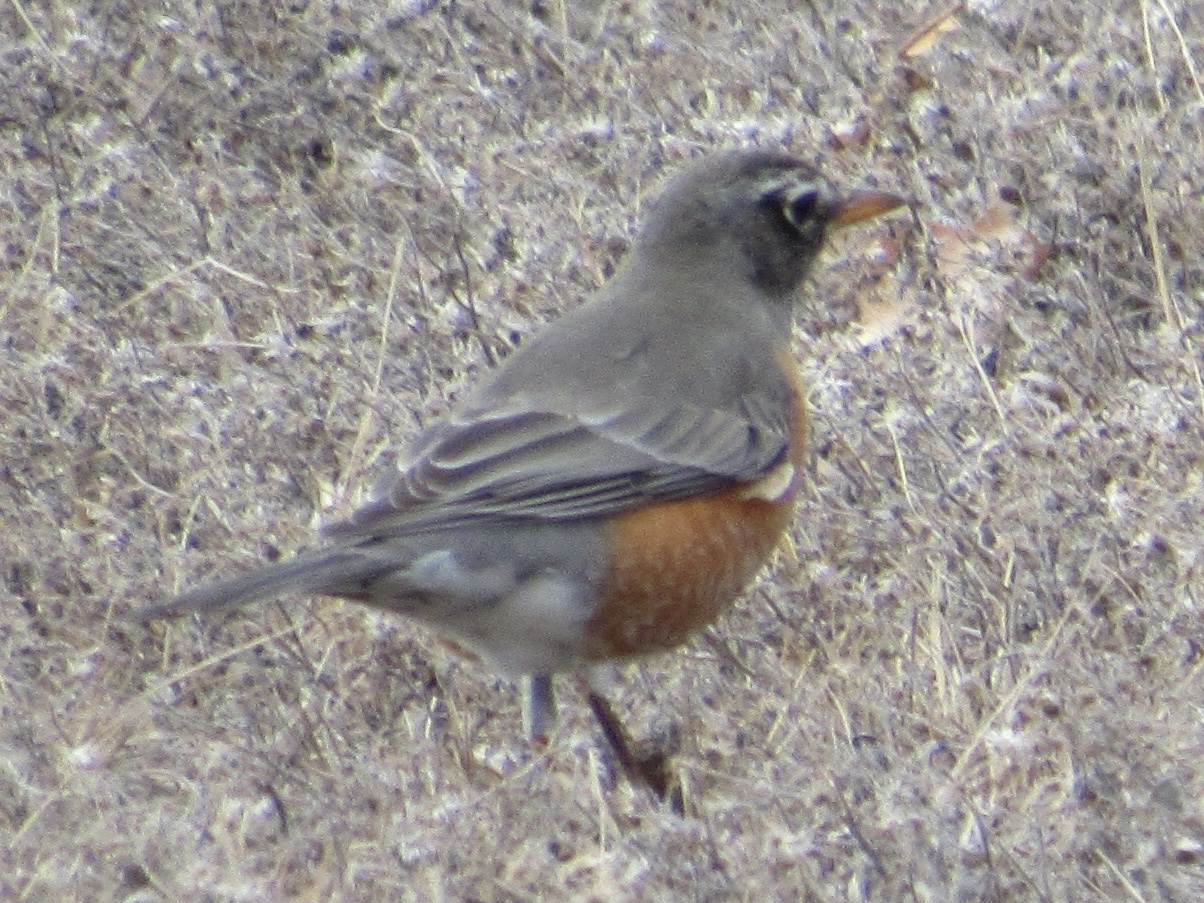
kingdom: Animalia
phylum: Chordata
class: Aves
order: Passeriformes
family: Turdidae
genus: Turdus
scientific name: Turdus migratorius
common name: American robin
